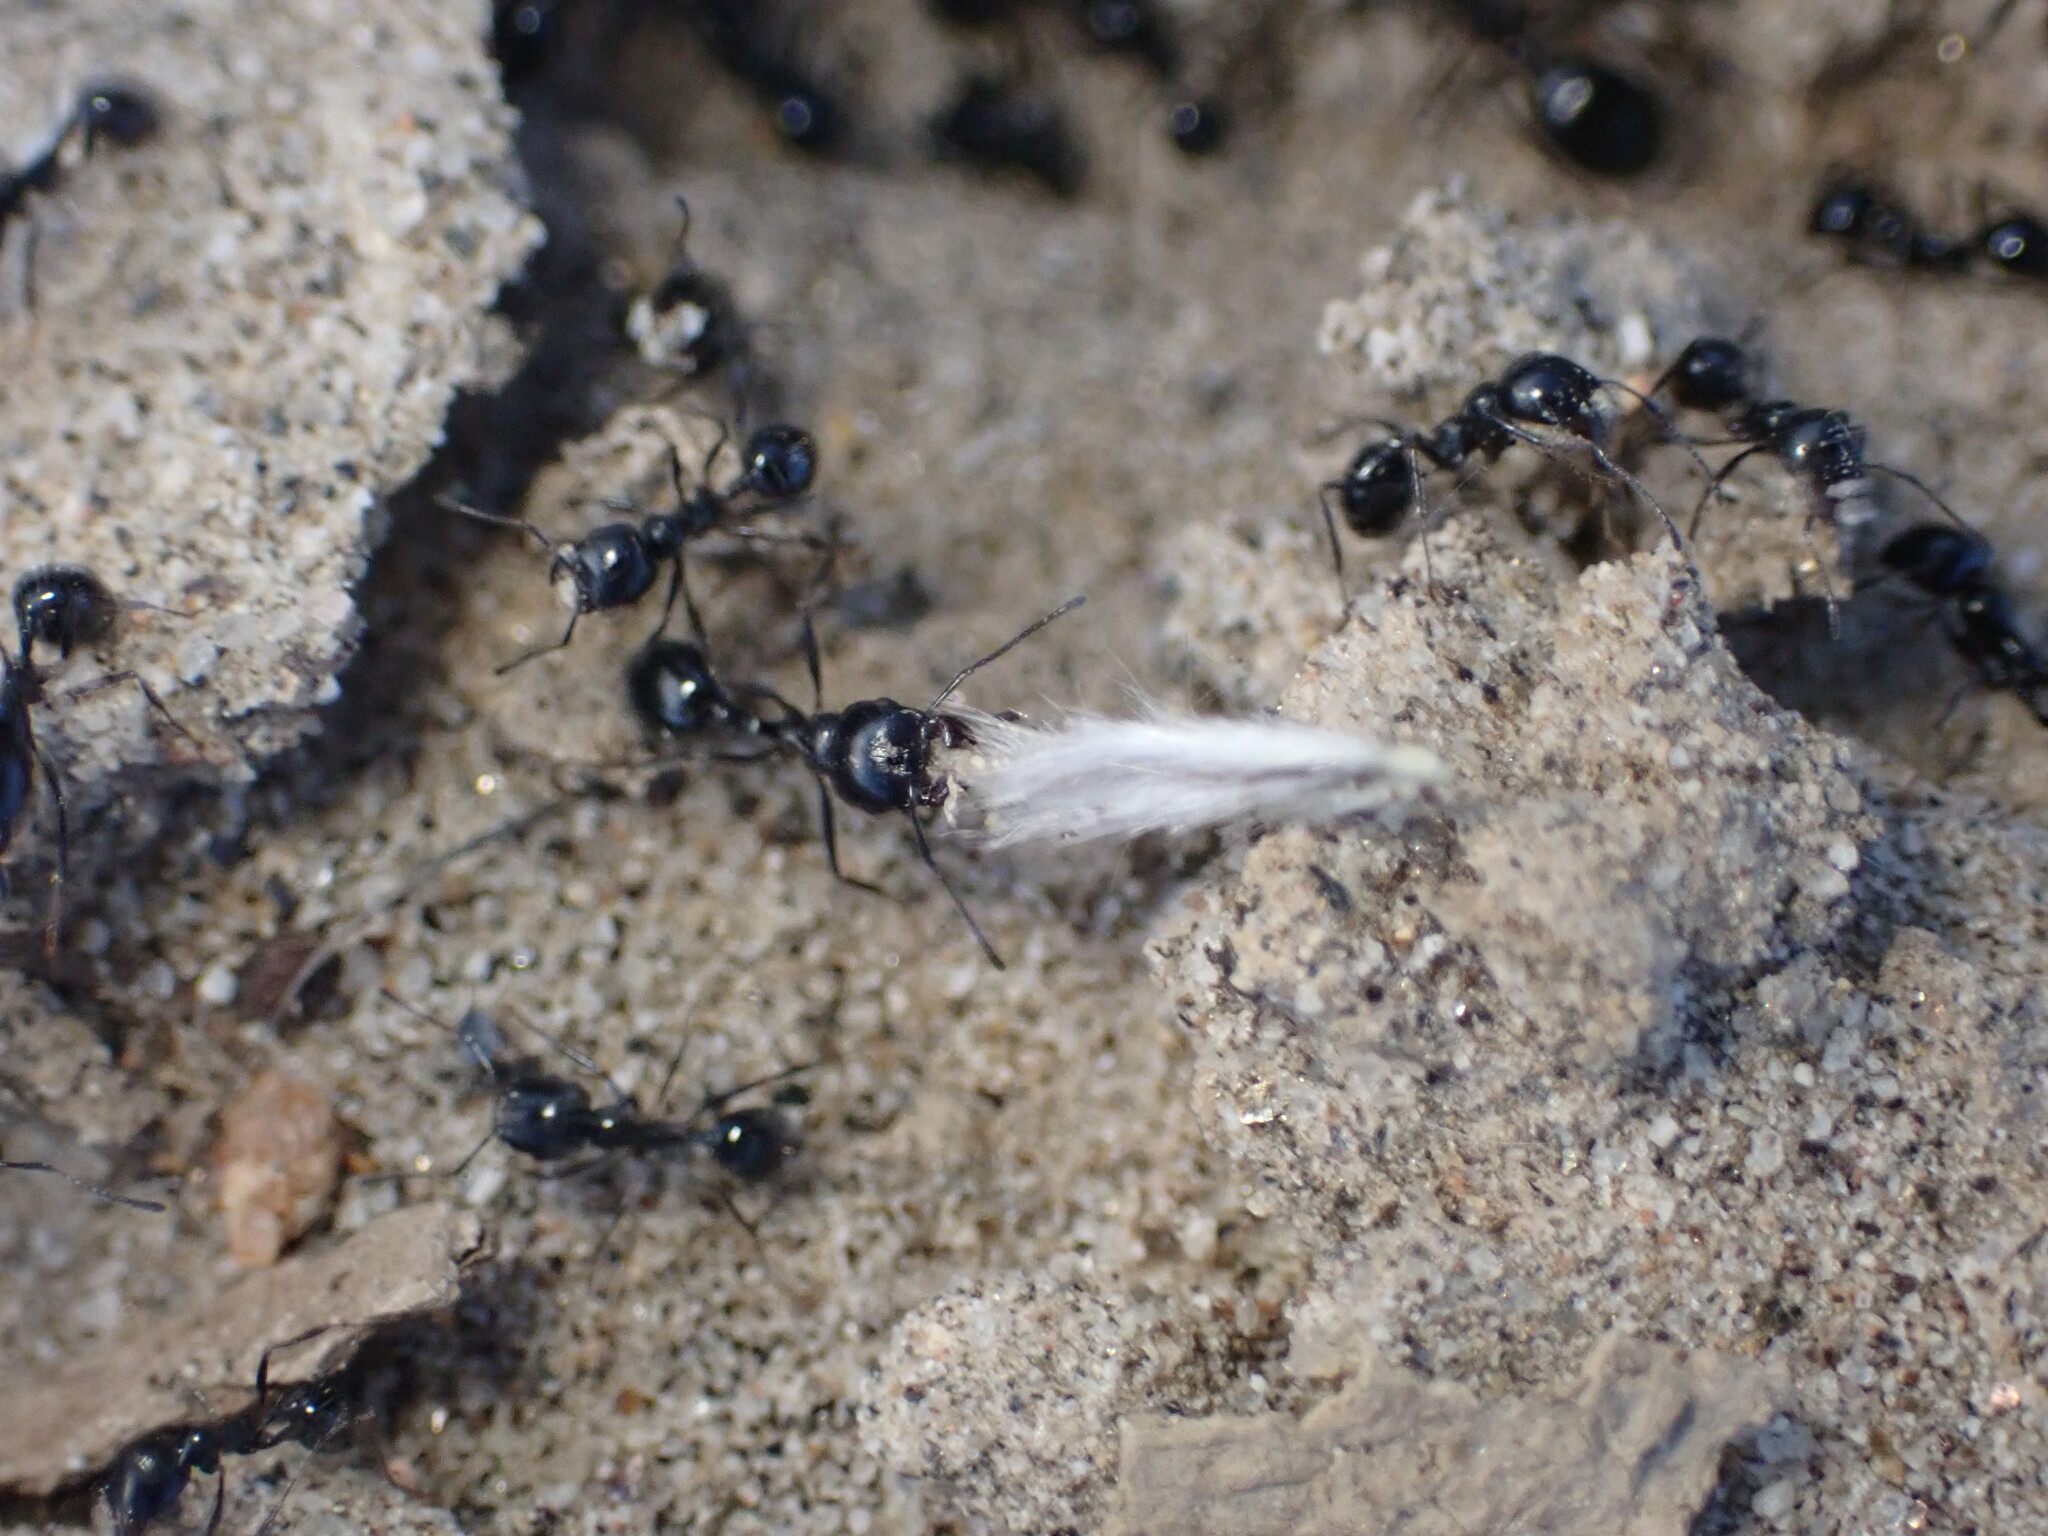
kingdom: Animalia
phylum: Arthropoda
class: Insecta
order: Hymenoptera
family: Formicidae
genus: Messor
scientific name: Messor pergandei
